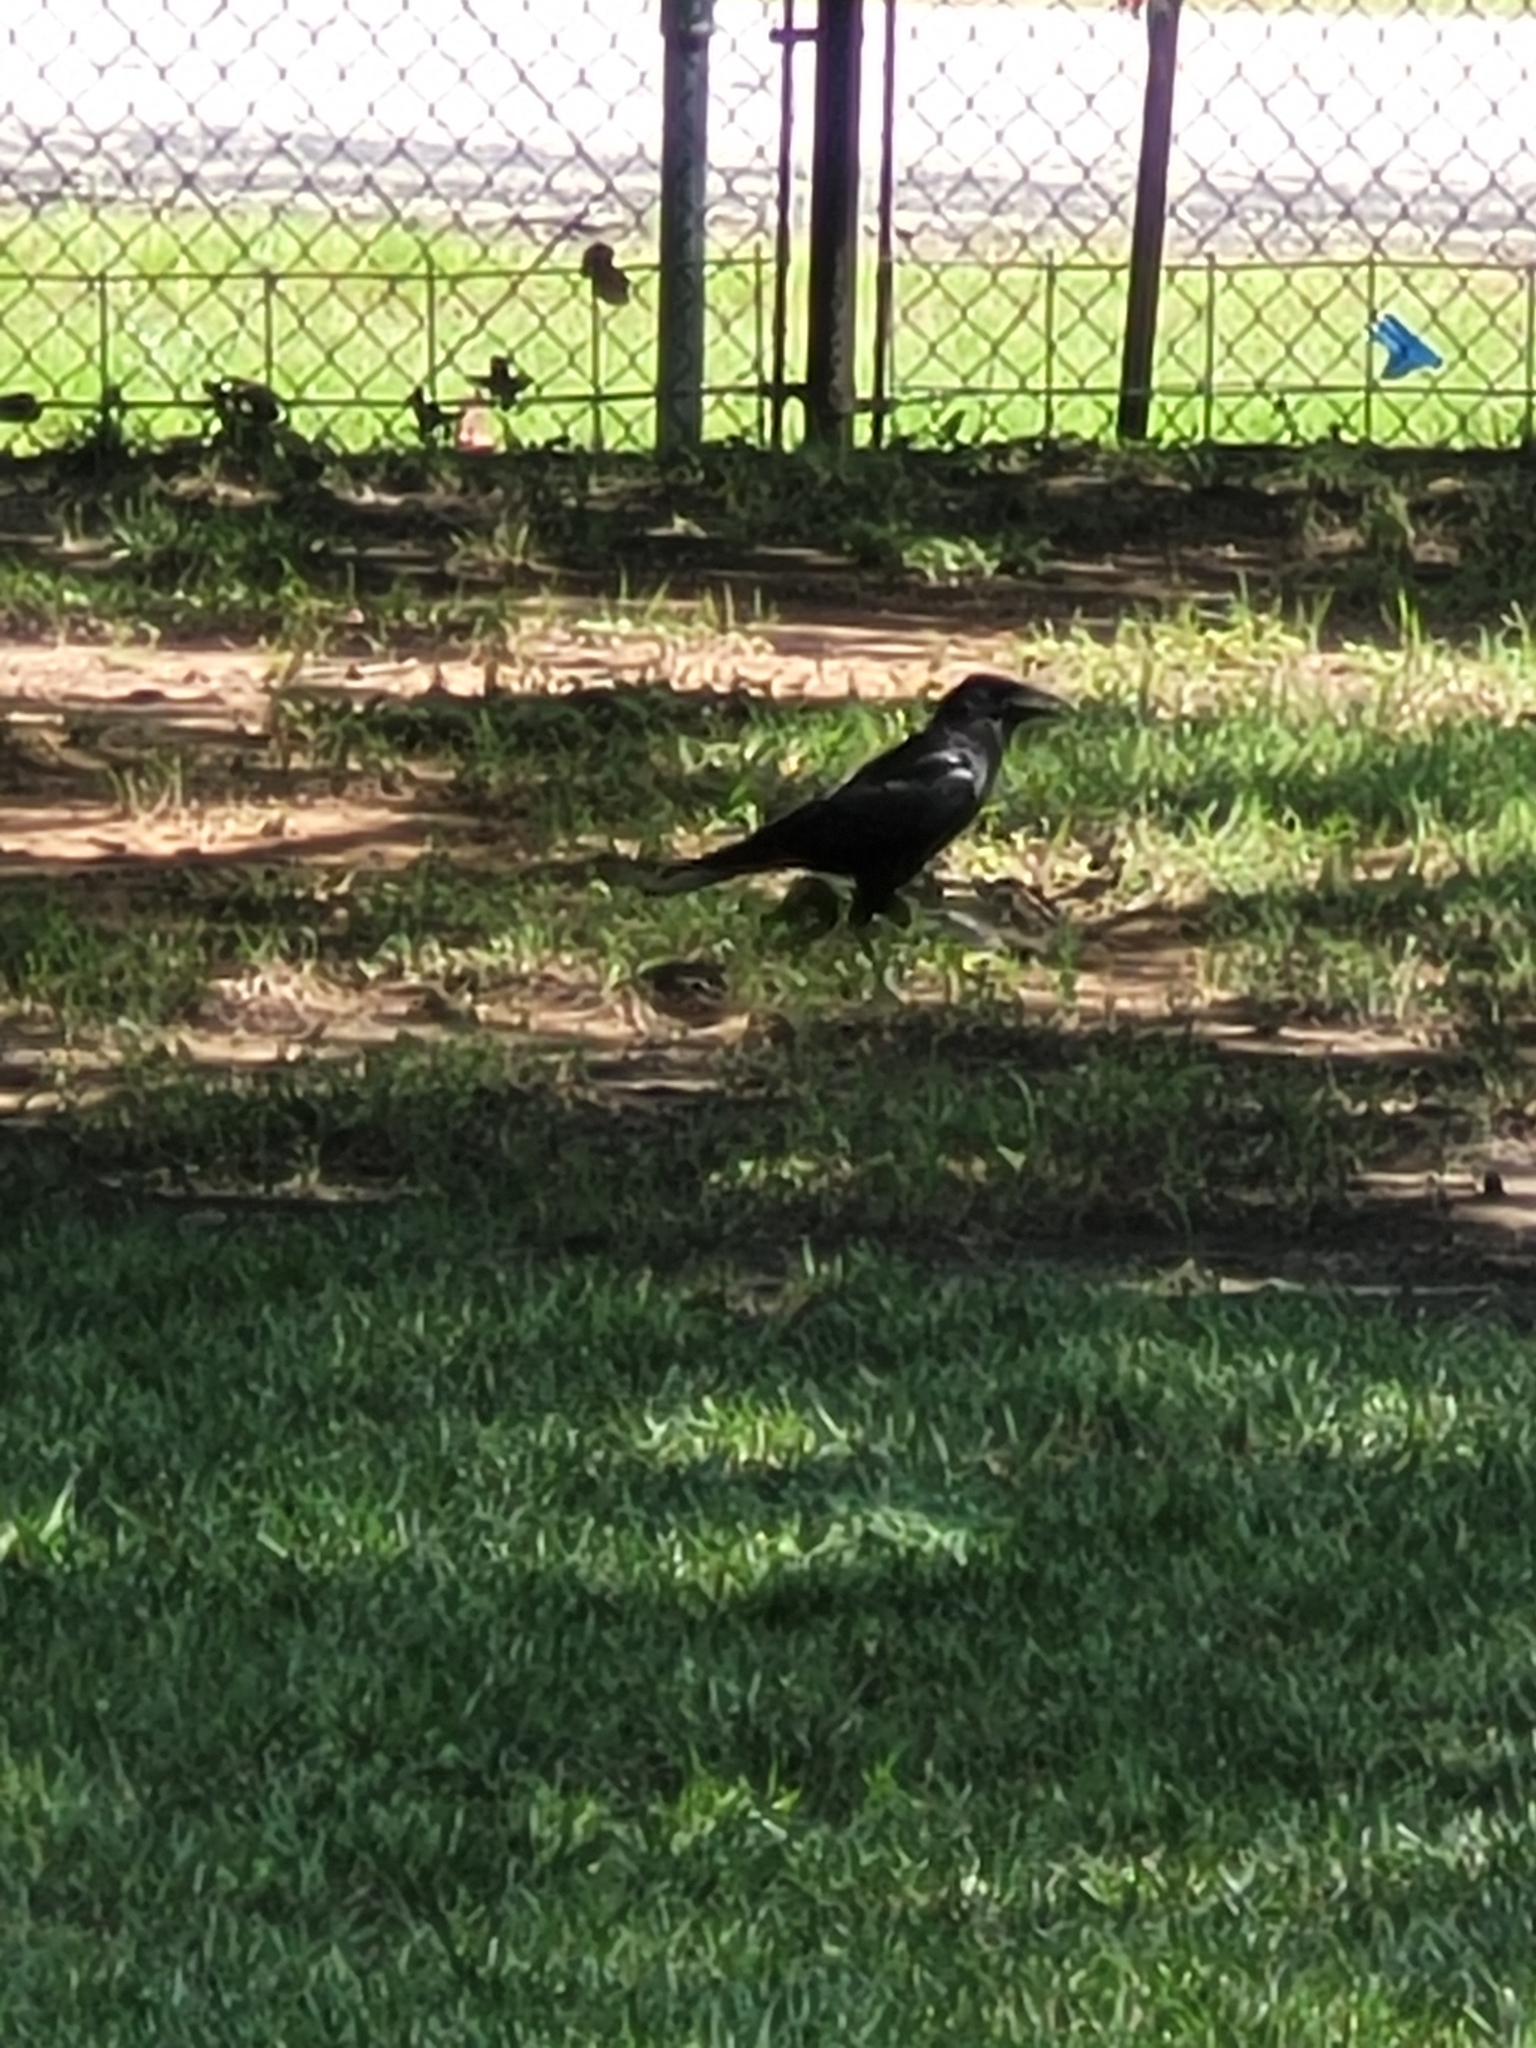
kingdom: Animalia
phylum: Chordata
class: Aves
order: Passeriformes
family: Corvidae
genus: Corvus
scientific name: Corvus brachyrhynchos
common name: American crow
